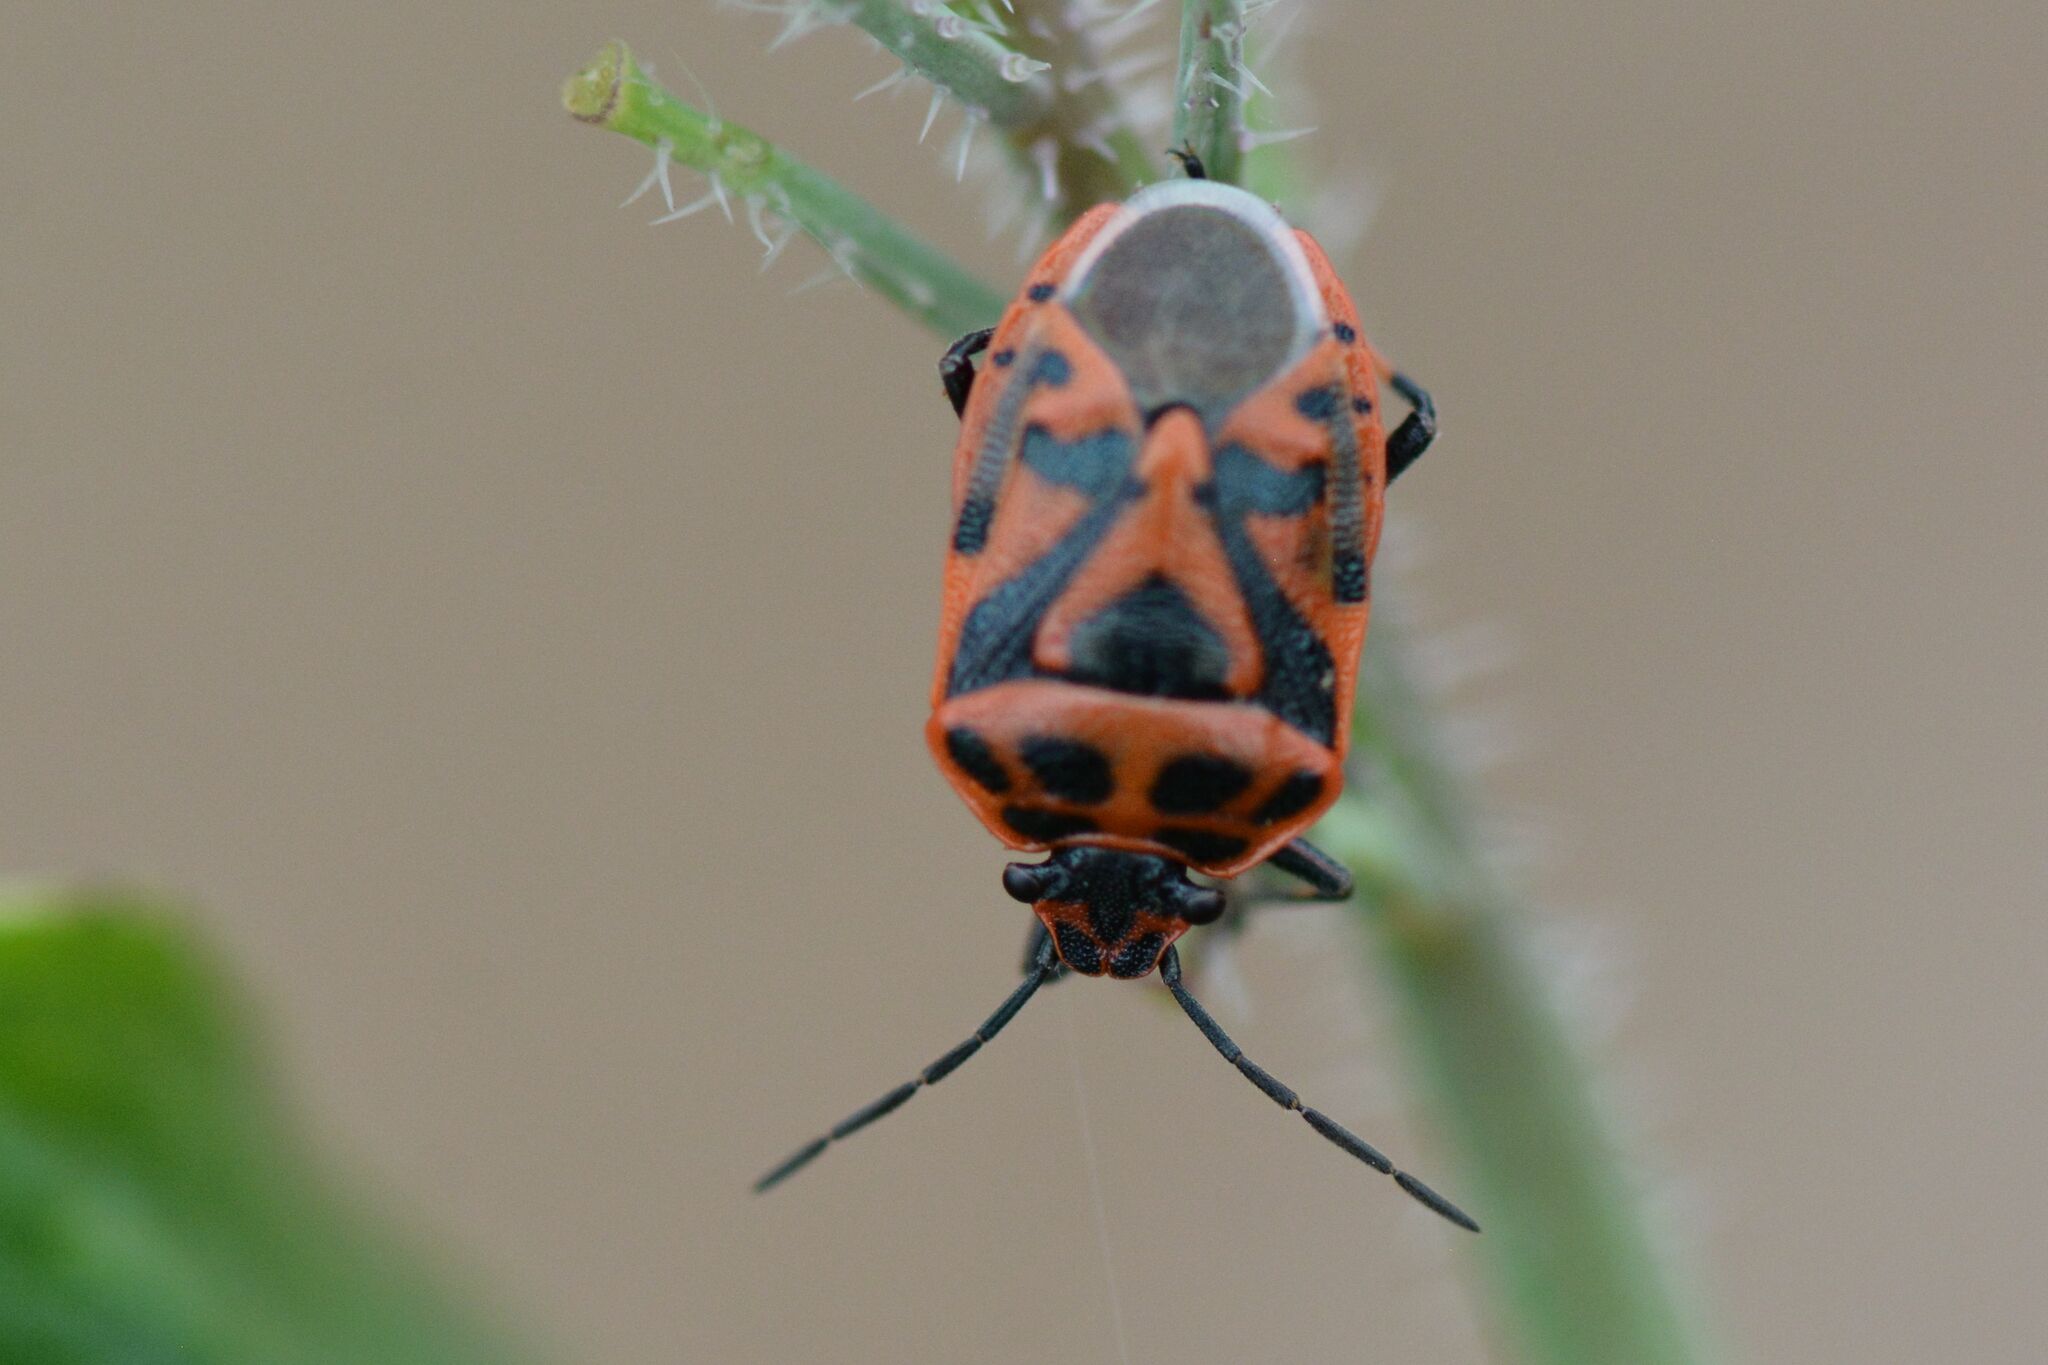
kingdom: Animalia
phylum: Arthropoda
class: Insecta
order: Hemiptera
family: Pentatomidae
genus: Eurydema
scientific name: Eurydema ornata
